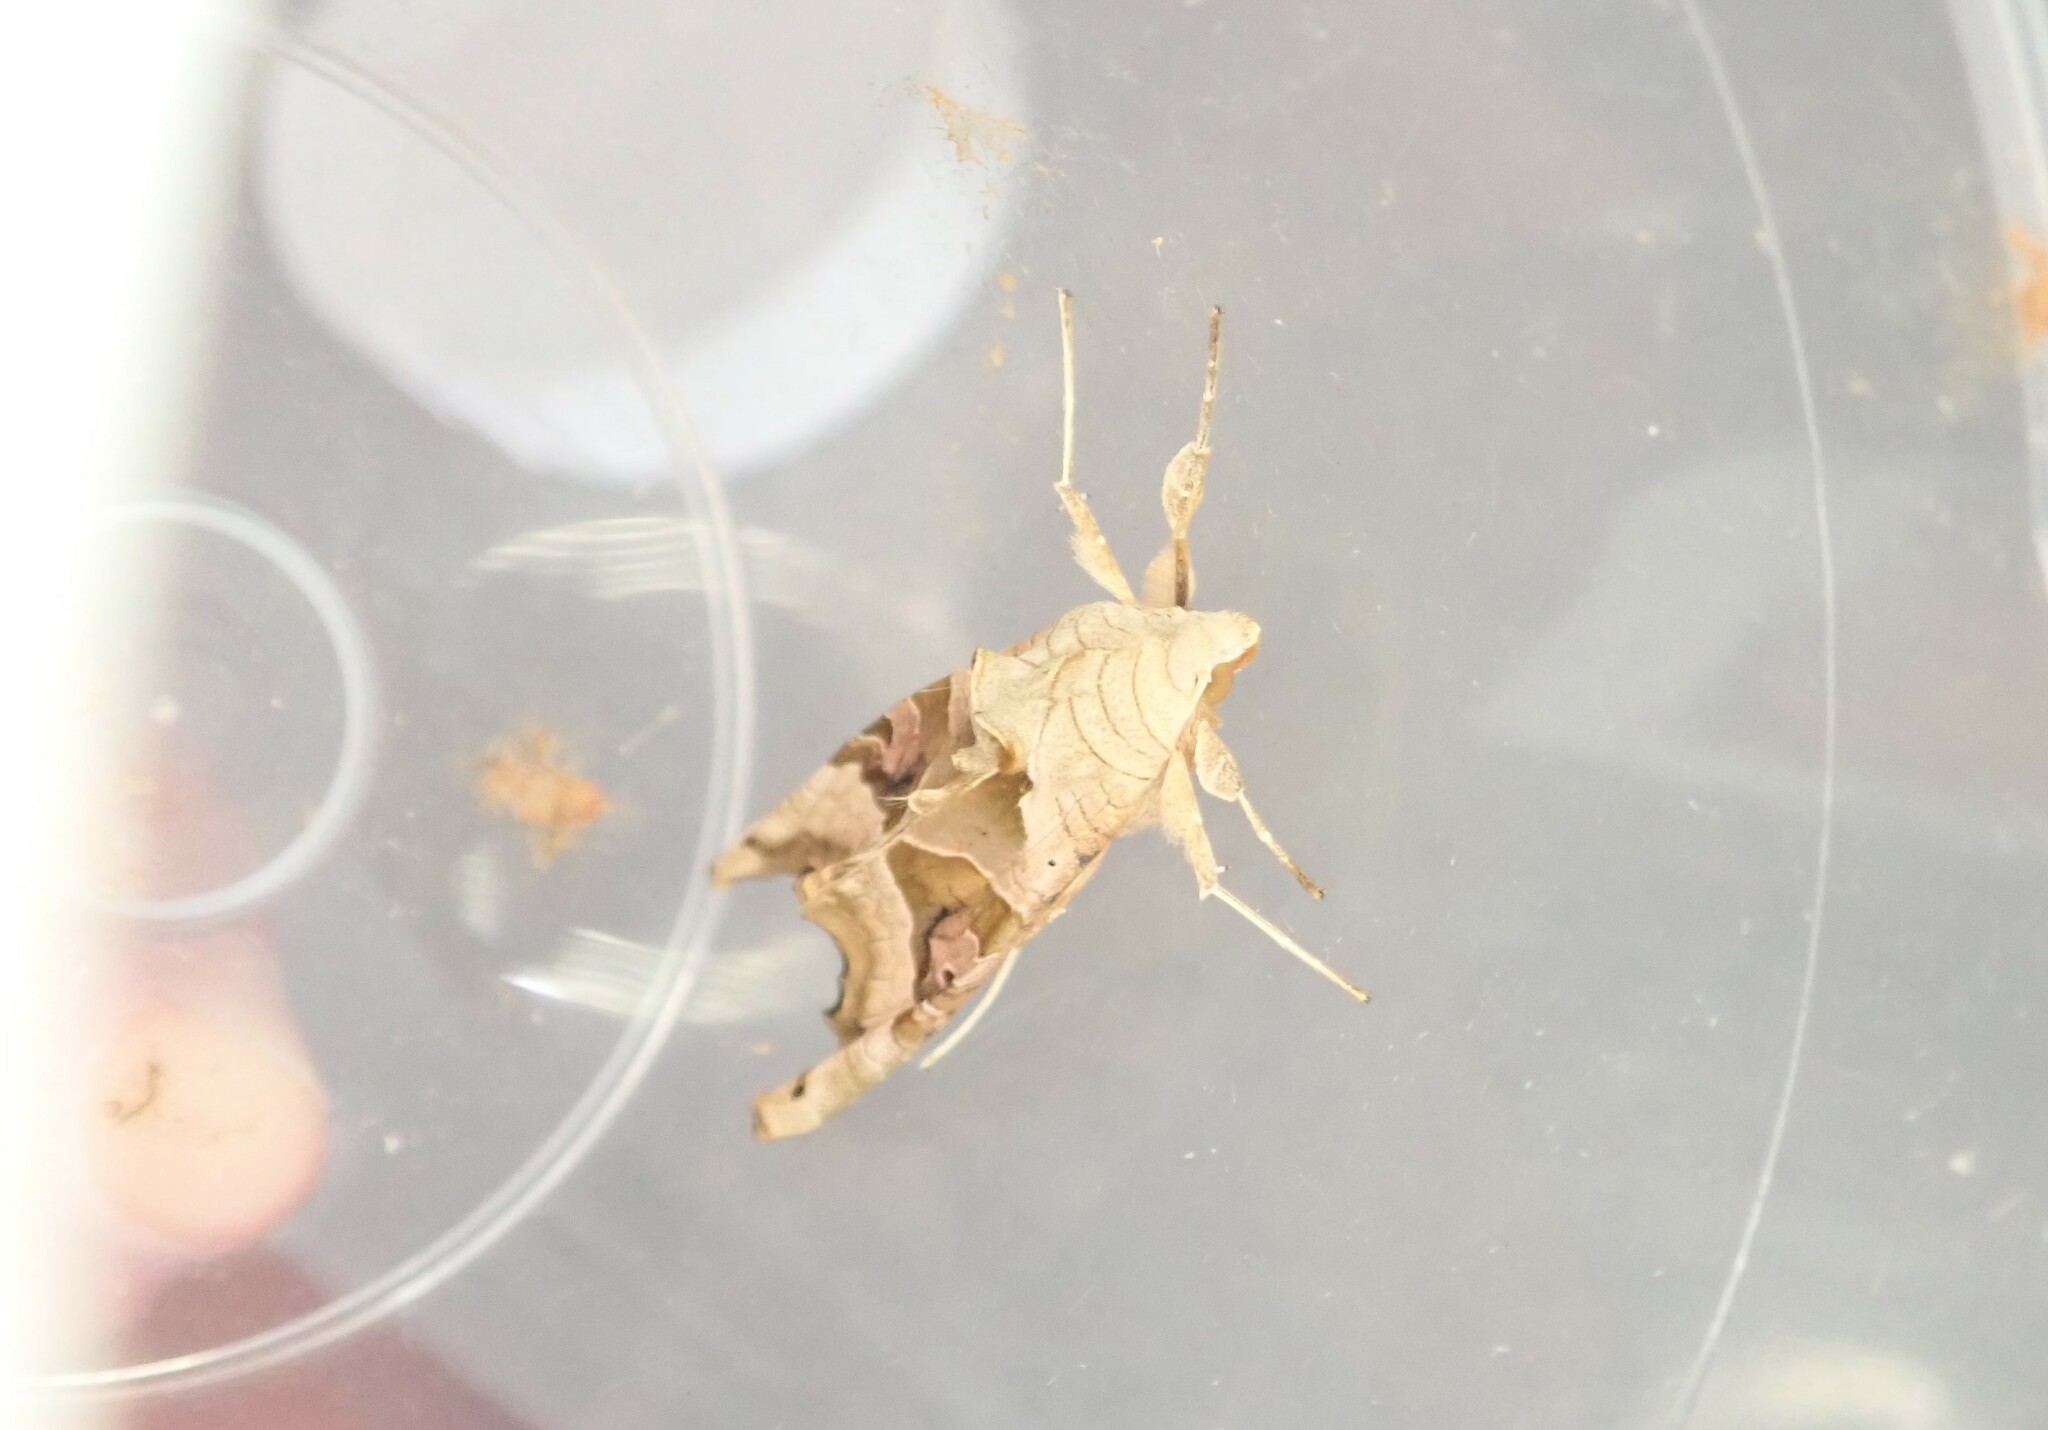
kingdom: Animalia
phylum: Arthropoda
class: Insecta
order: Lepidoptera
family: Noctuidae
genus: Phlogophora
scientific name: Phlogophora meticulosa
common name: Angle shades
